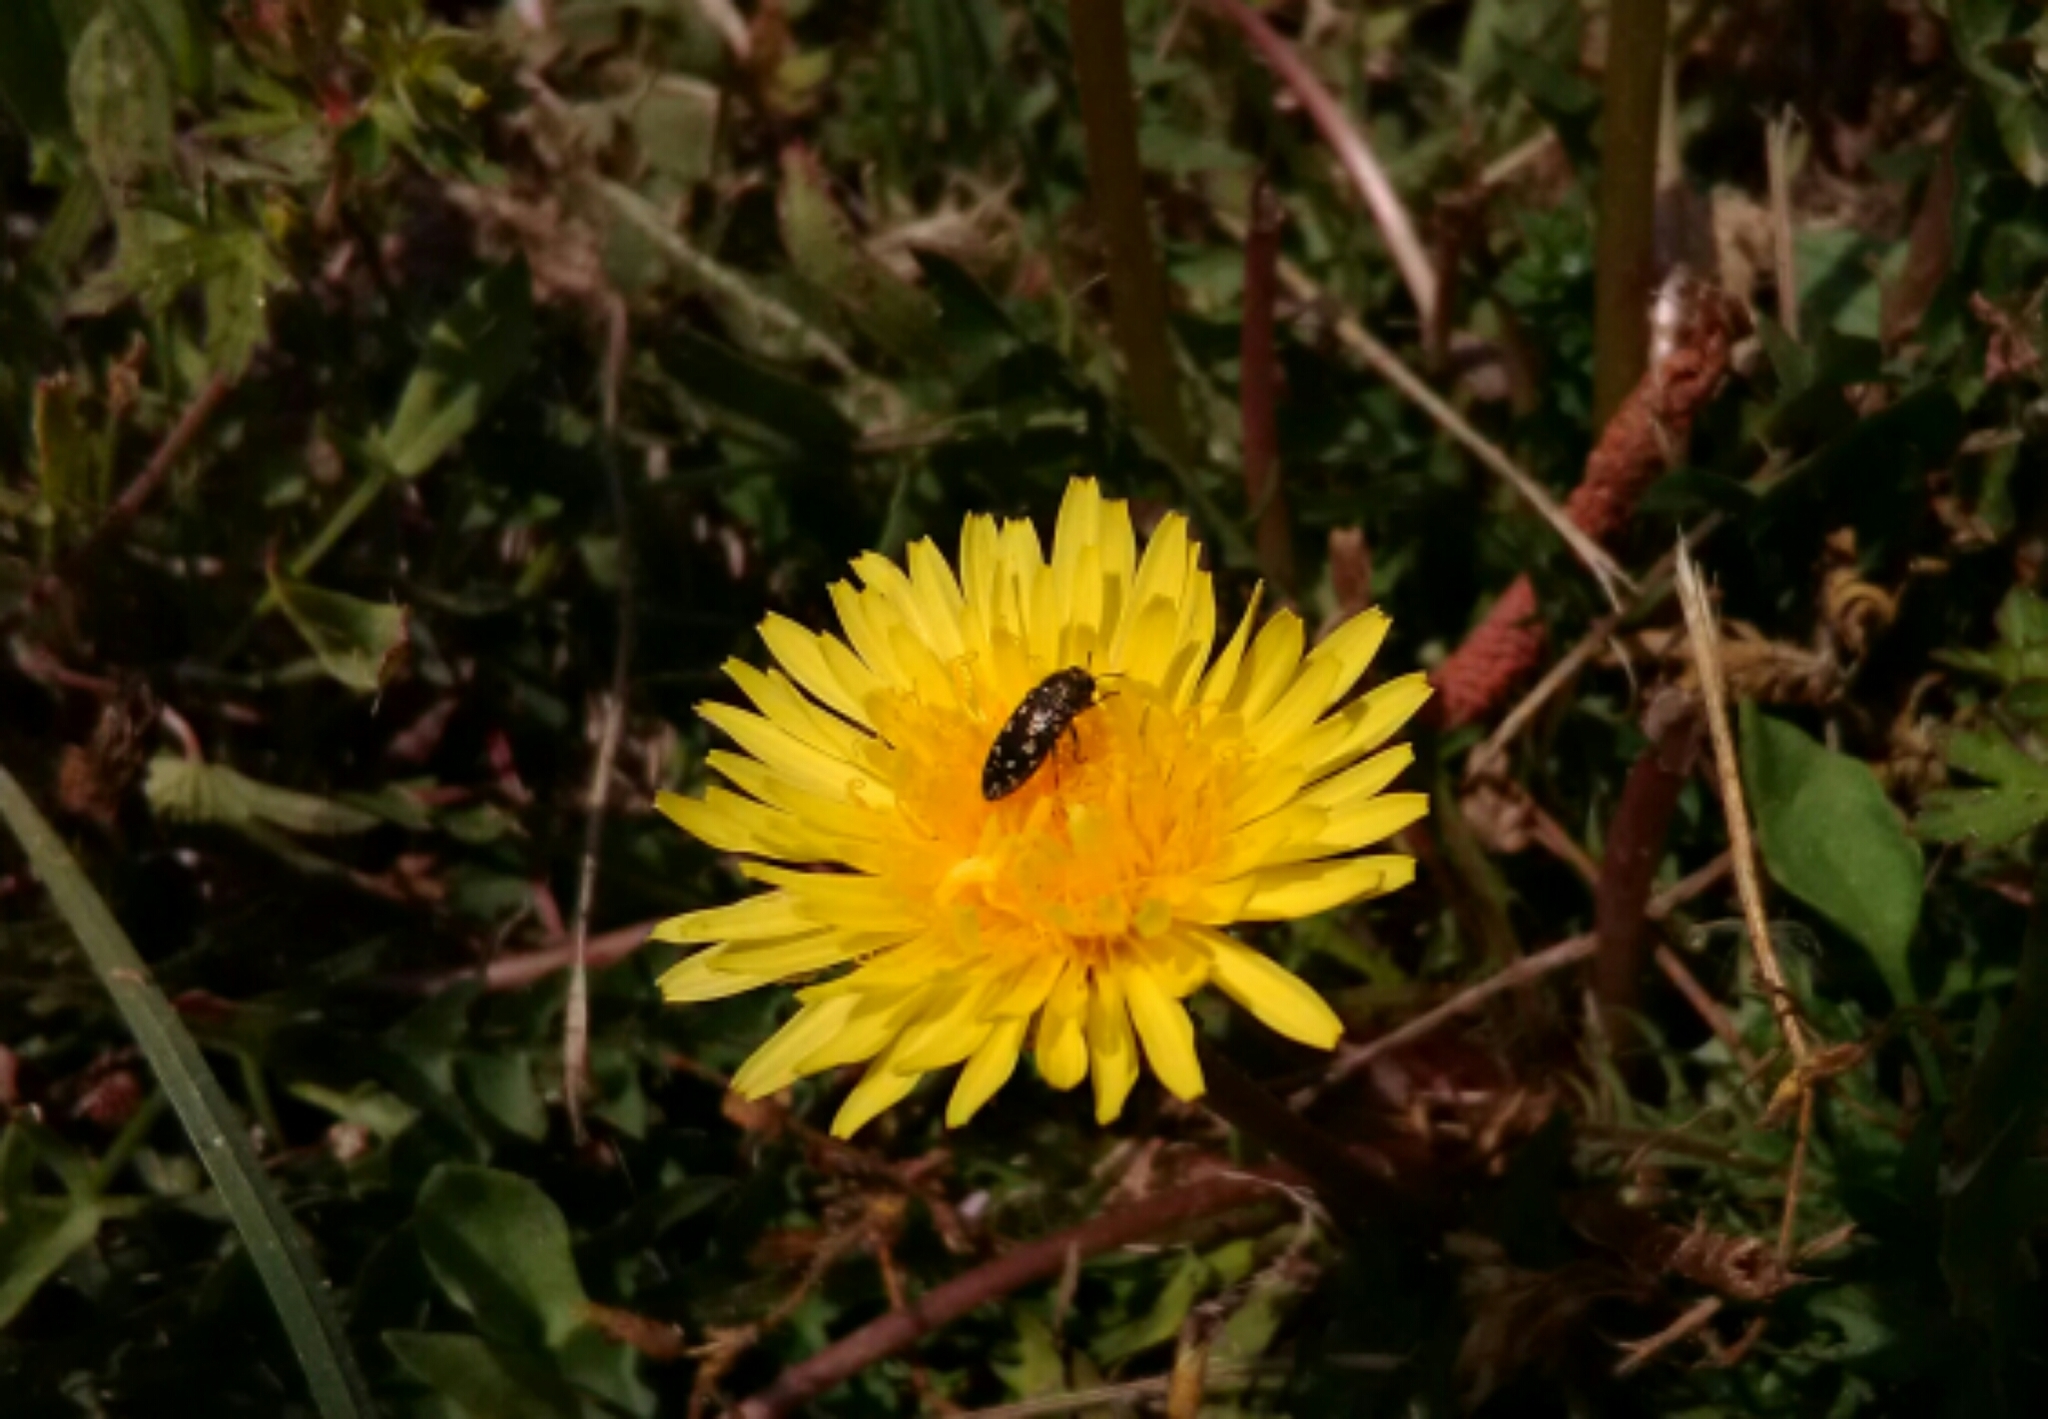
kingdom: Animalia
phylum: Arthropoda
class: Insecta
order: Coleoptera
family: Buprestidae
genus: Acmaeodera
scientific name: Acmaeodera tubulus
